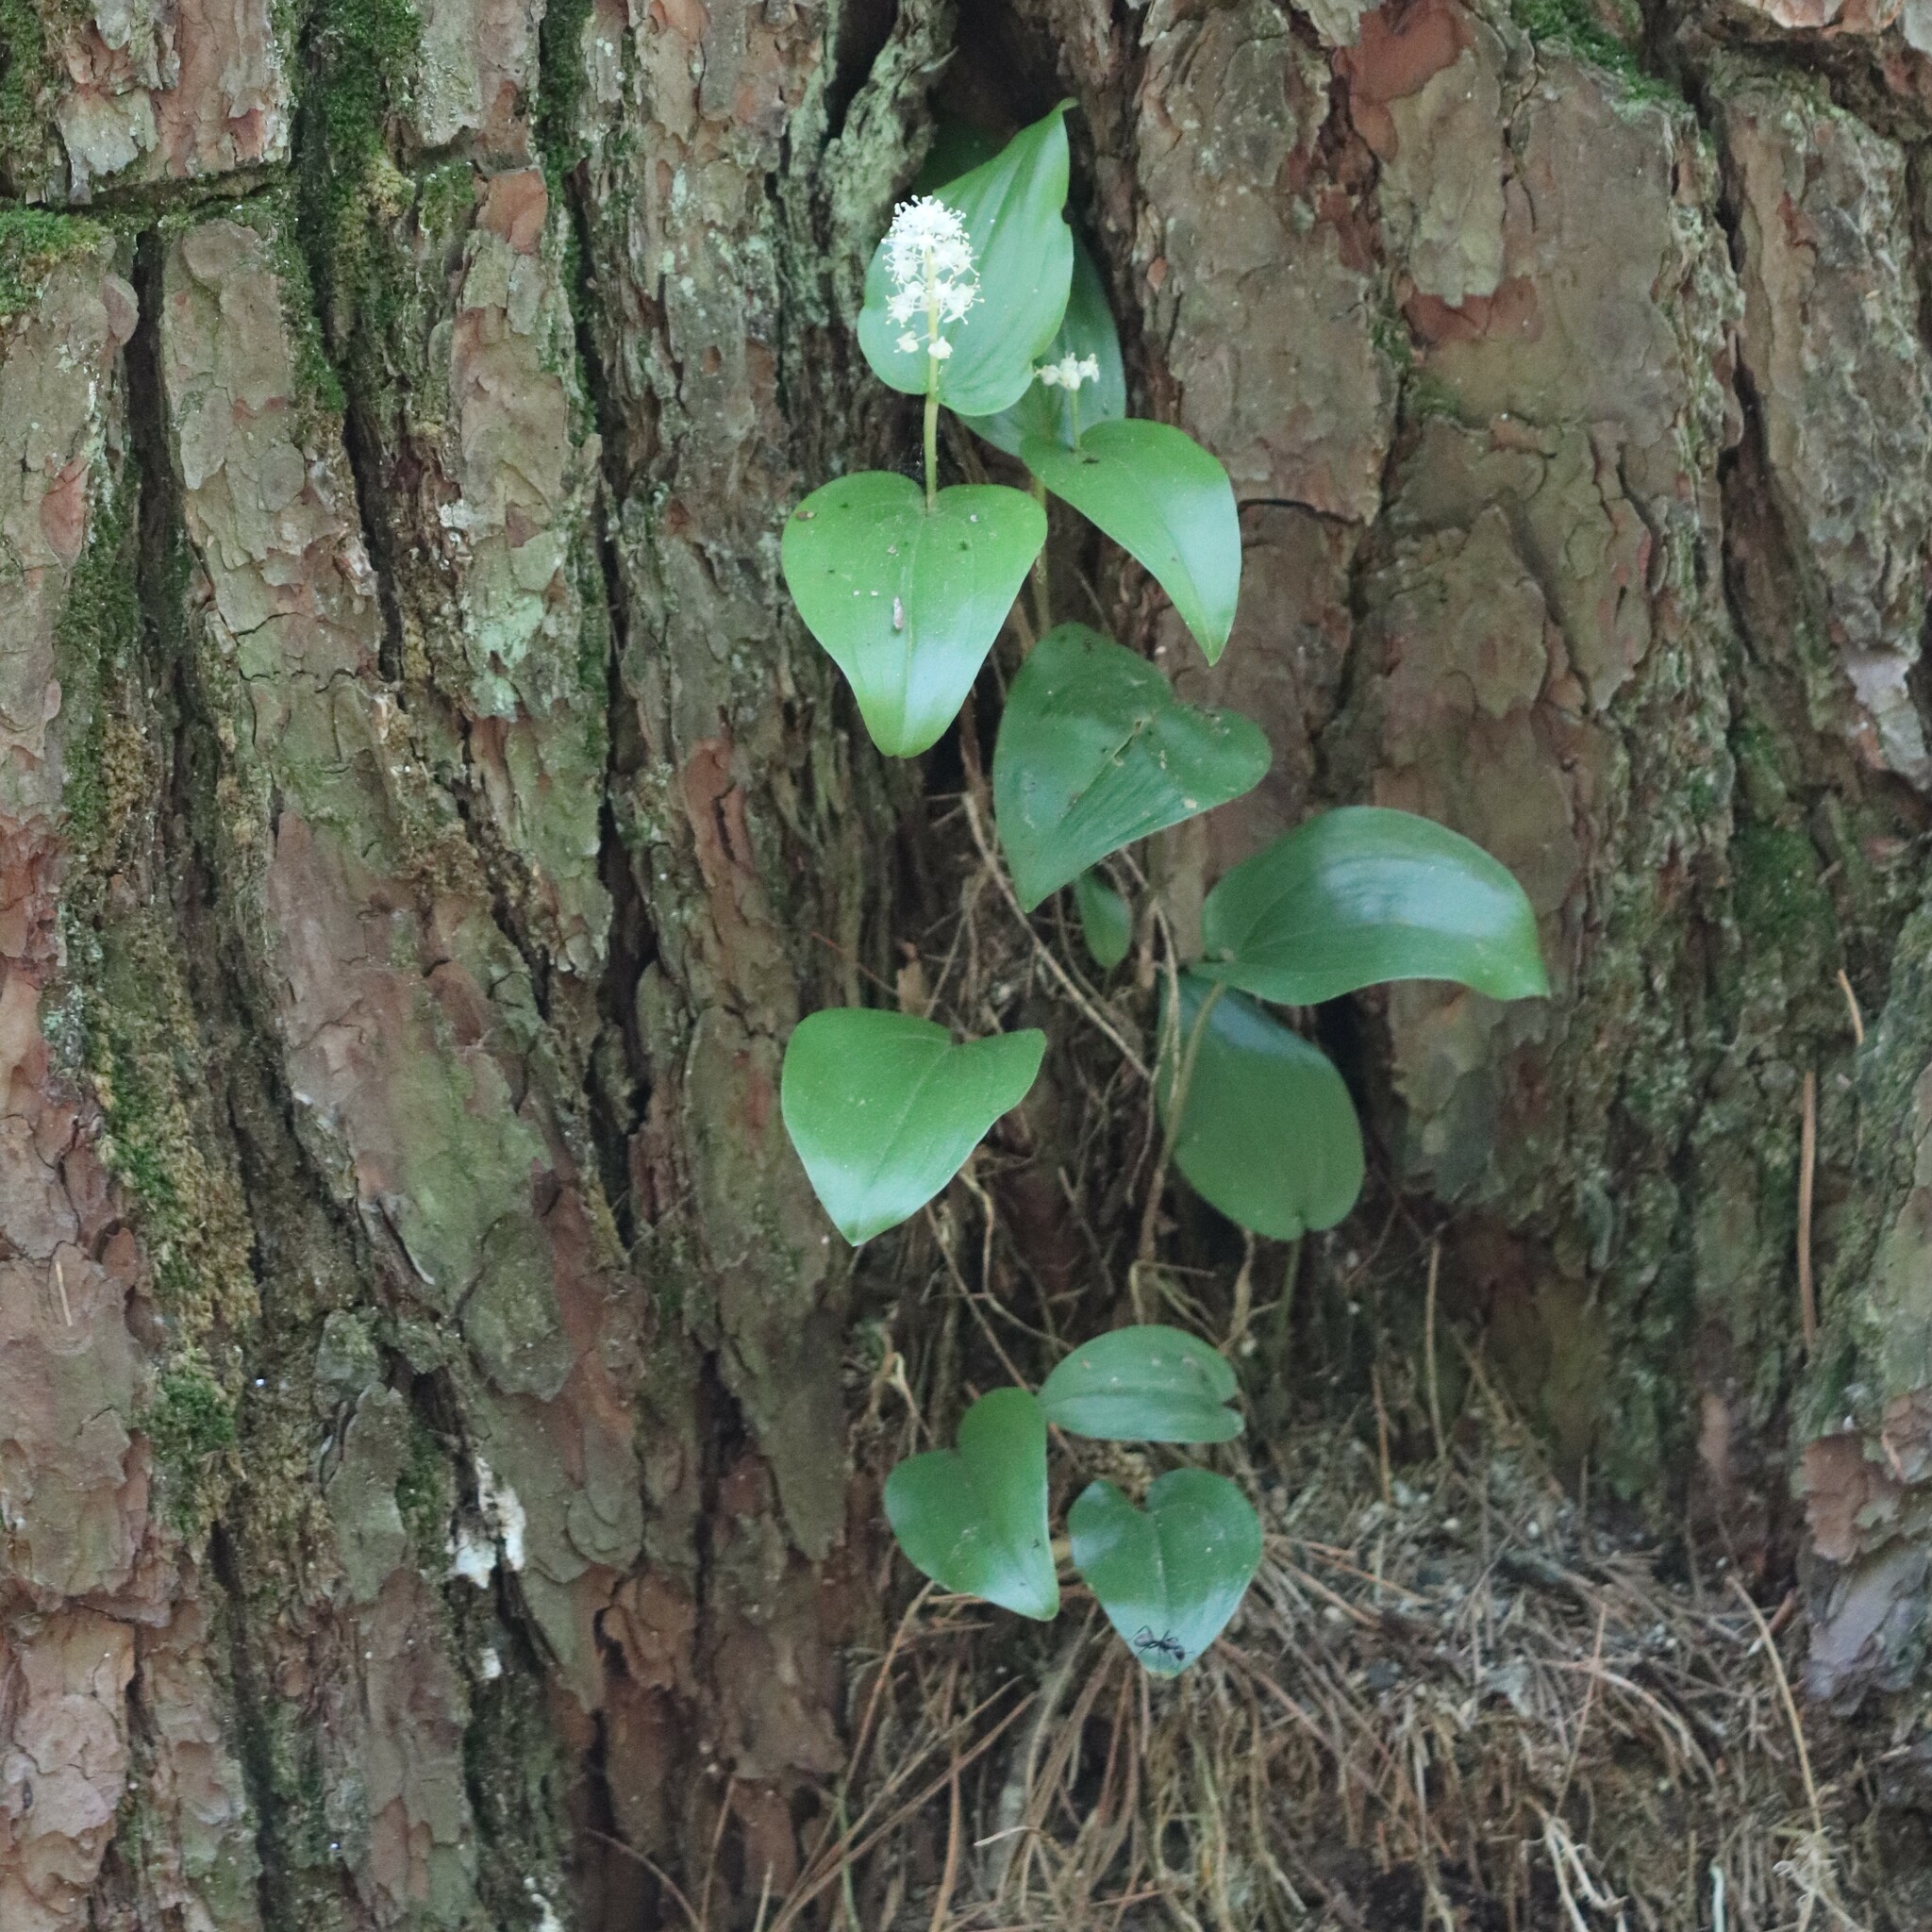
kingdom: Plantae
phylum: Tracheophyta
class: Liliopsida
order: Asparagales
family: Asparagaceae
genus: Maianthemum
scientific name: Maianthemum canadense
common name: False lily-of-the-valley
